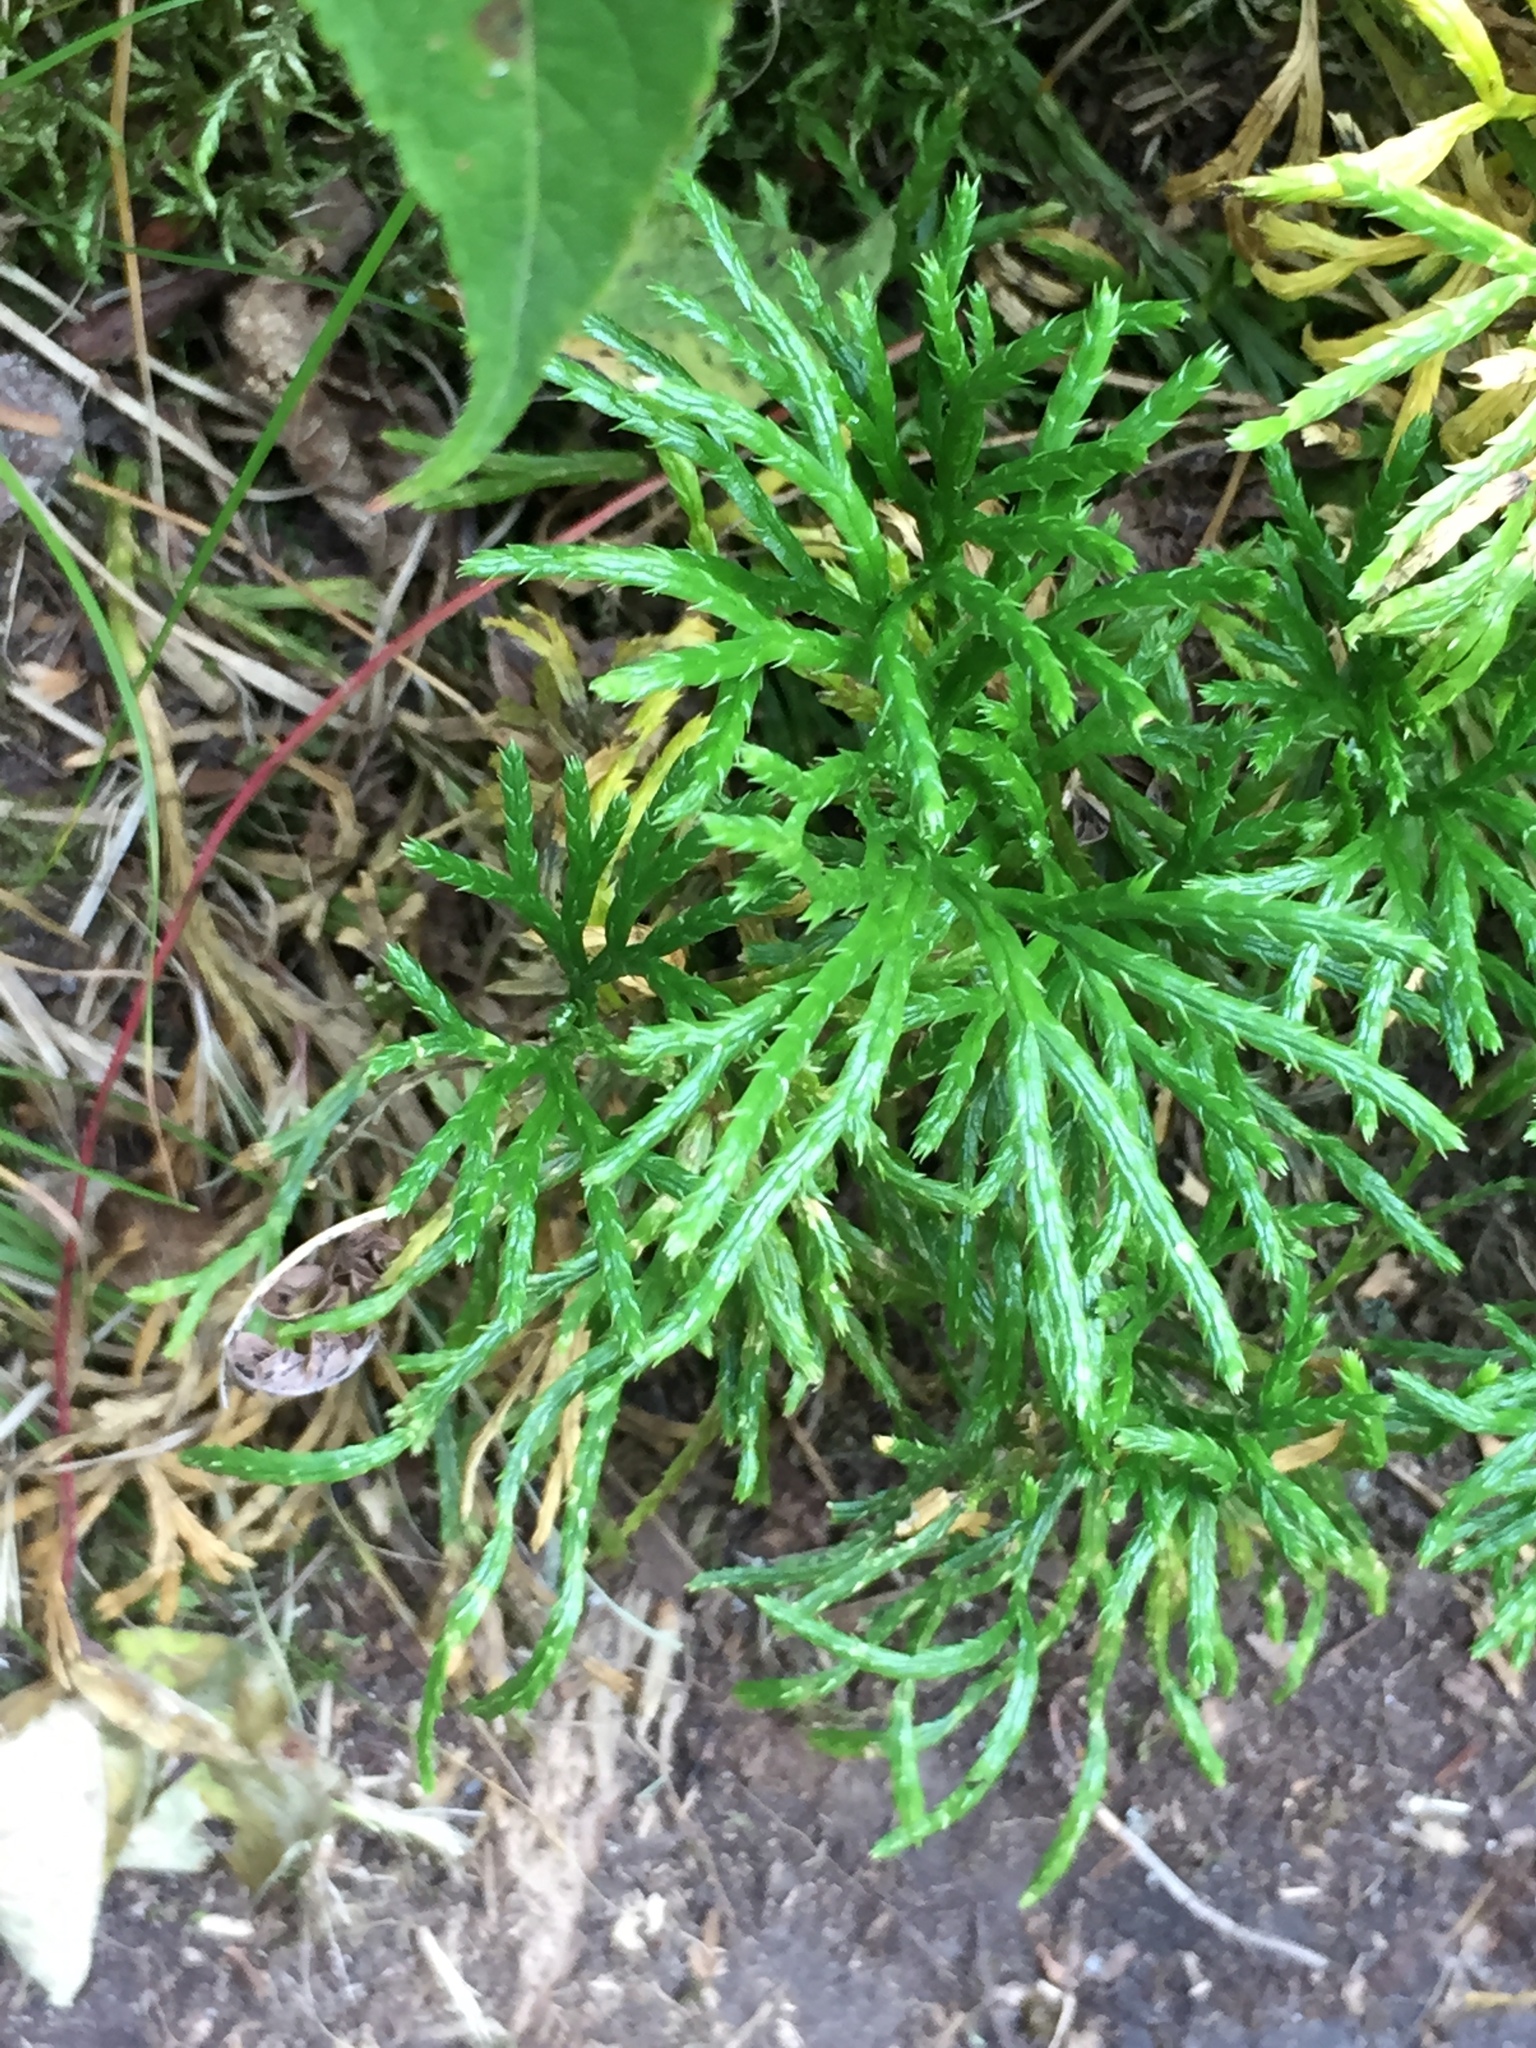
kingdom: Plantae
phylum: Tracheophyta
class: Lycopodiopsida
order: Lycopodiales
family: Lycopodiaceae
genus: Diphasiastrum
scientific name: Diphasiastrum complanatum
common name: Northern running-pine
